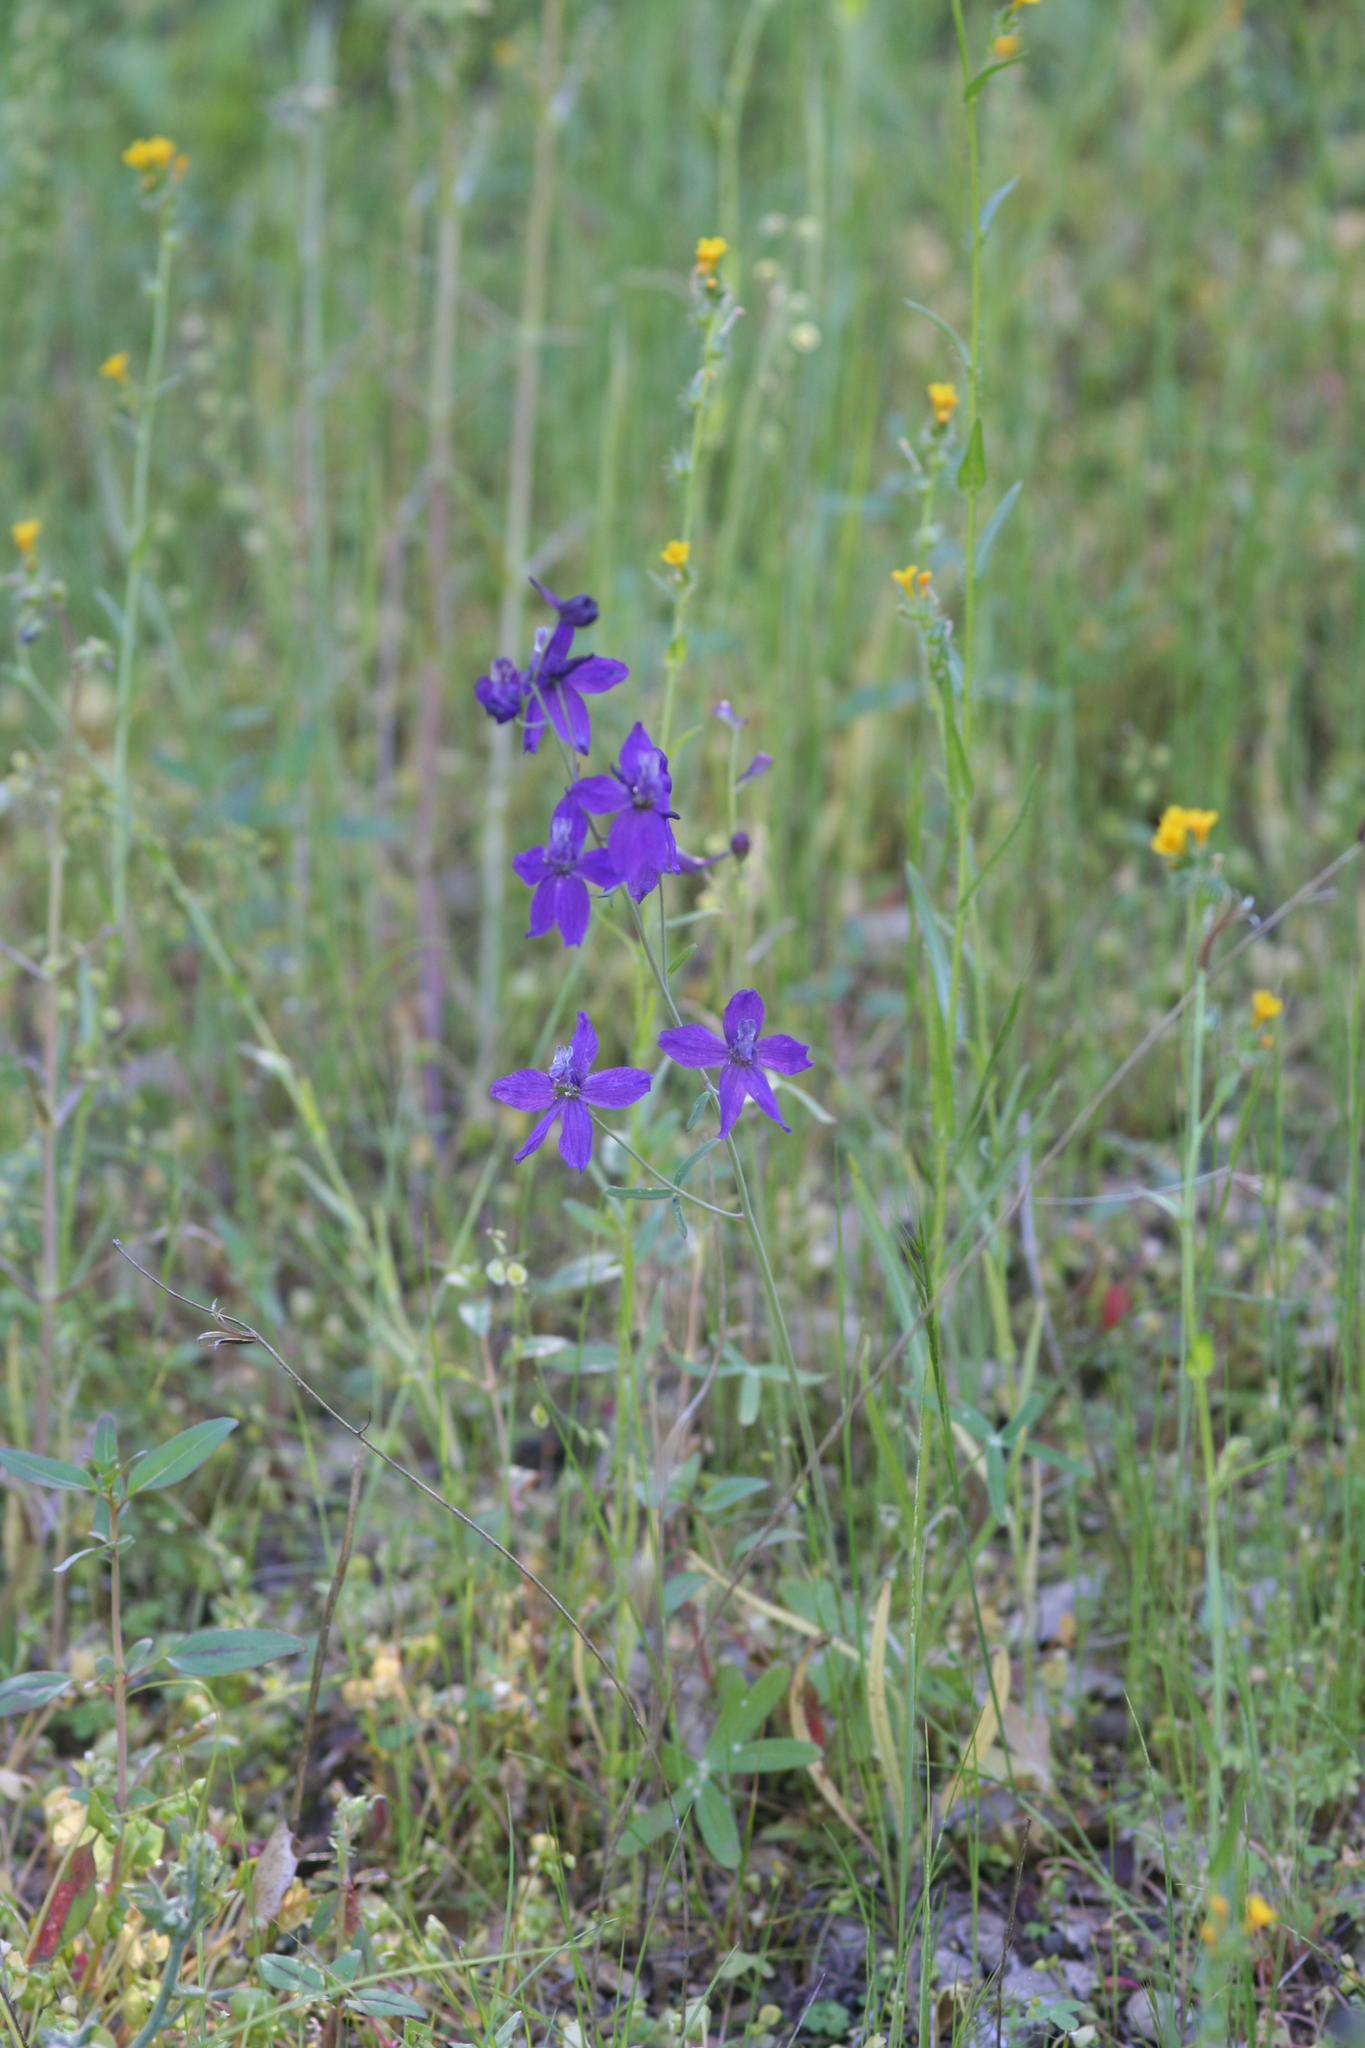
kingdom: Plantae
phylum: Tracheophyta
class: Magnoliopsida
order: Ranunculales
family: Ranunculaceae
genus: Delphinium
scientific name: Delphinium patens
